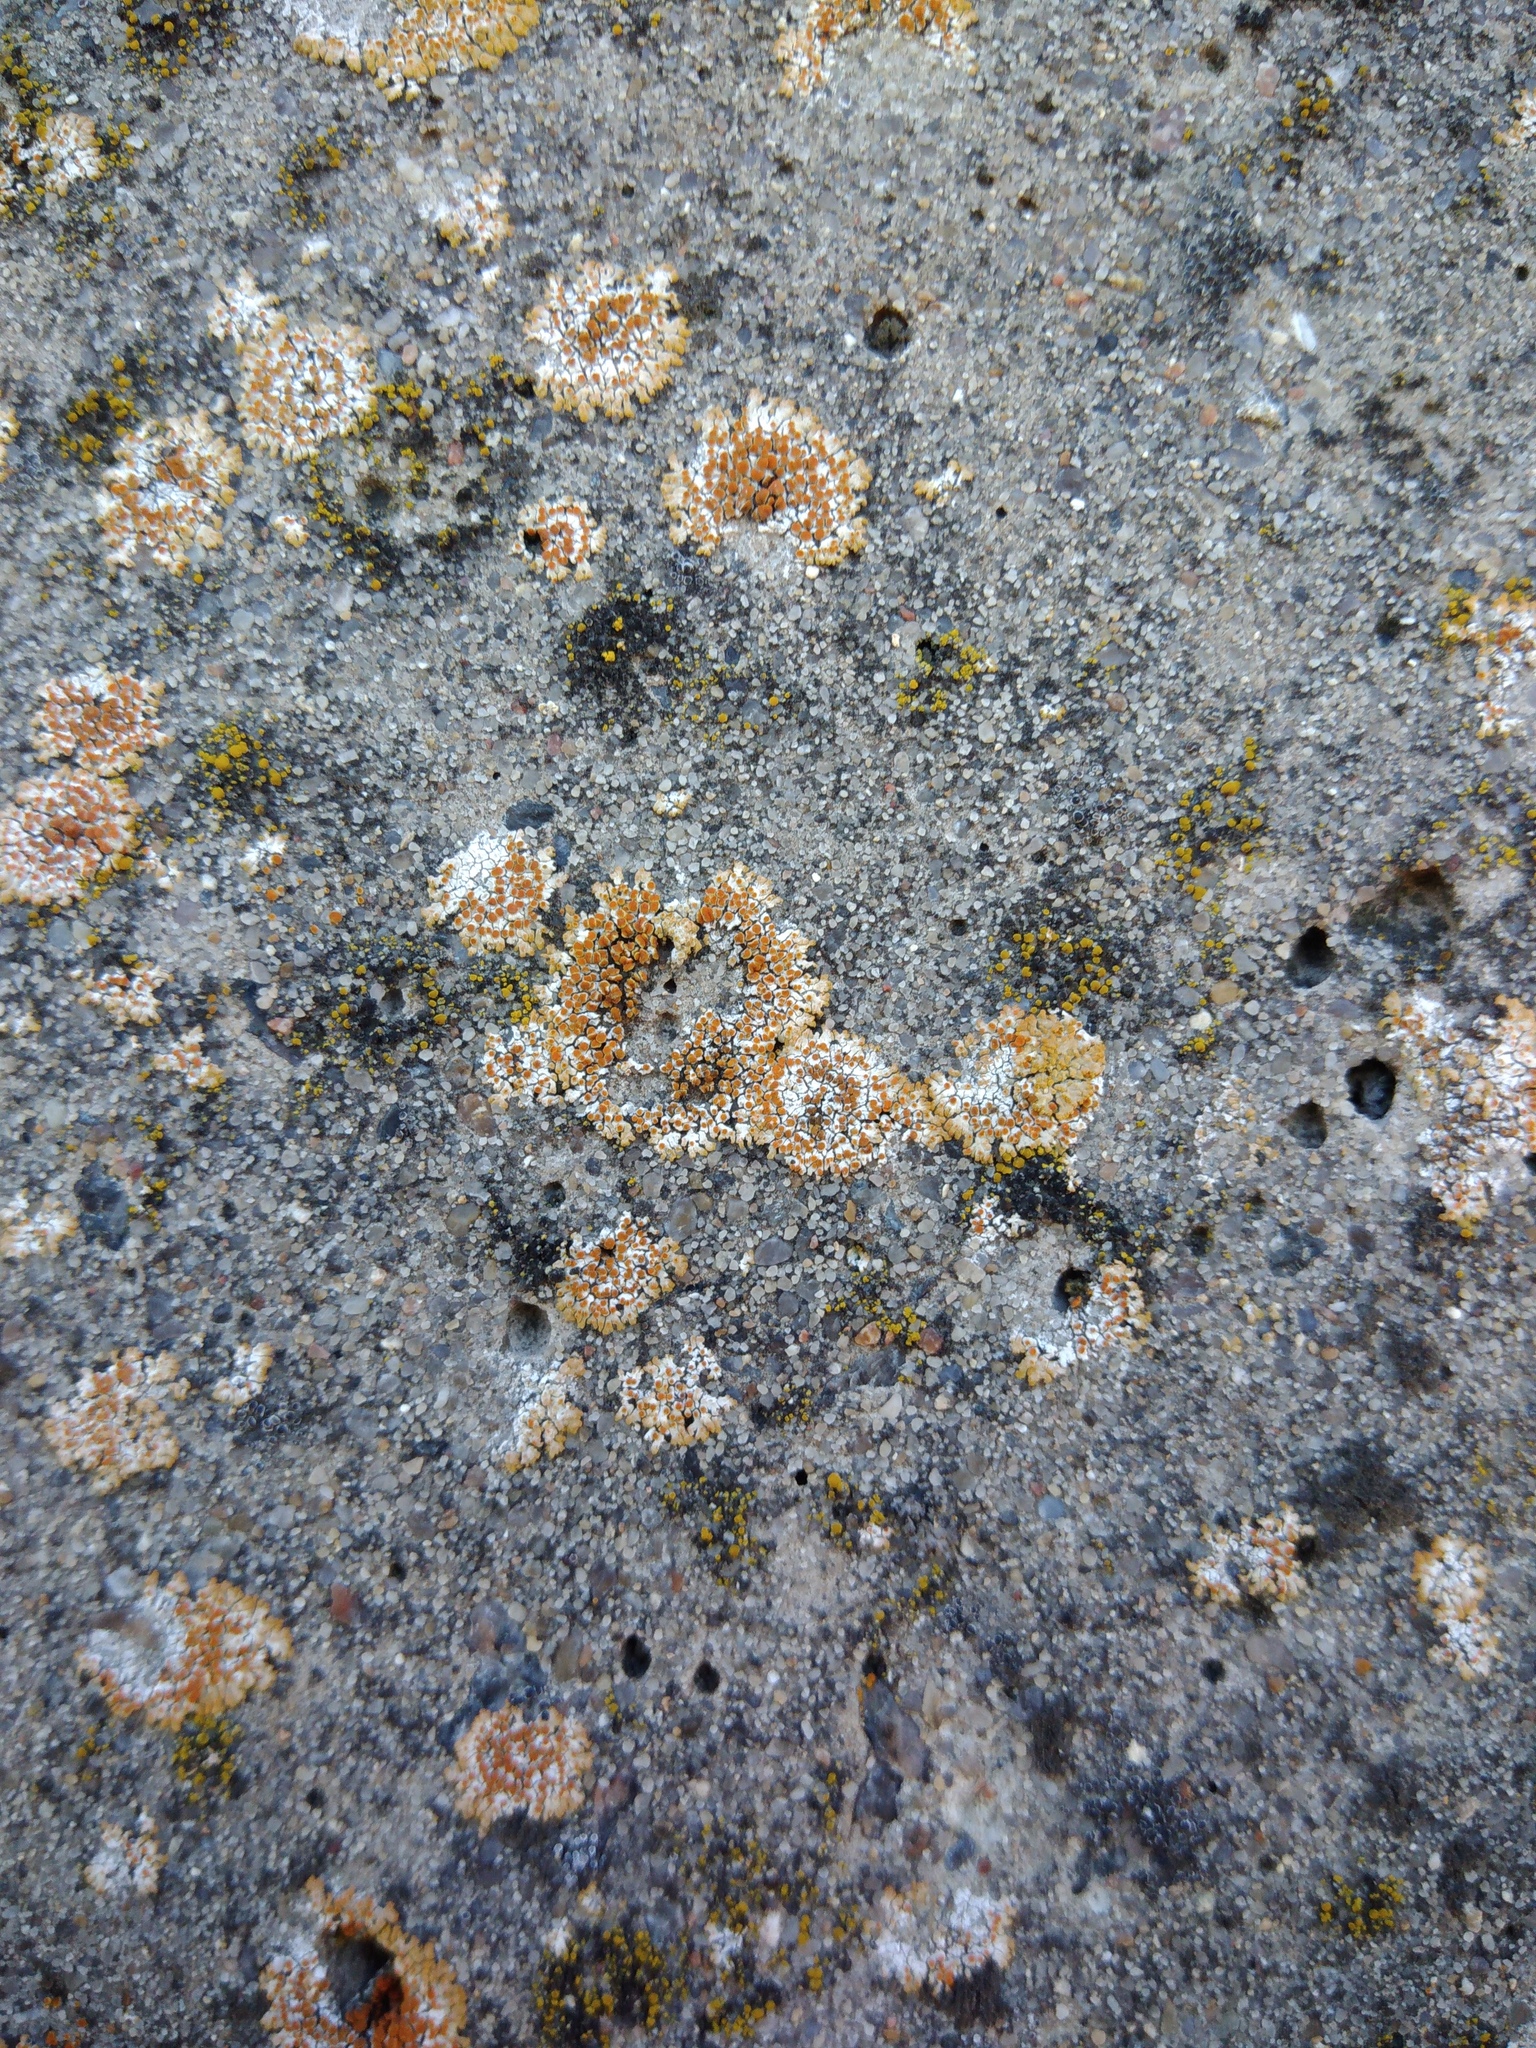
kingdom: Fungi
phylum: Ascomycota
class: Lecanoromycetes
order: Teloschistales
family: Teloschistaceae
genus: Calogaya
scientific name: Calogaya pusilla
